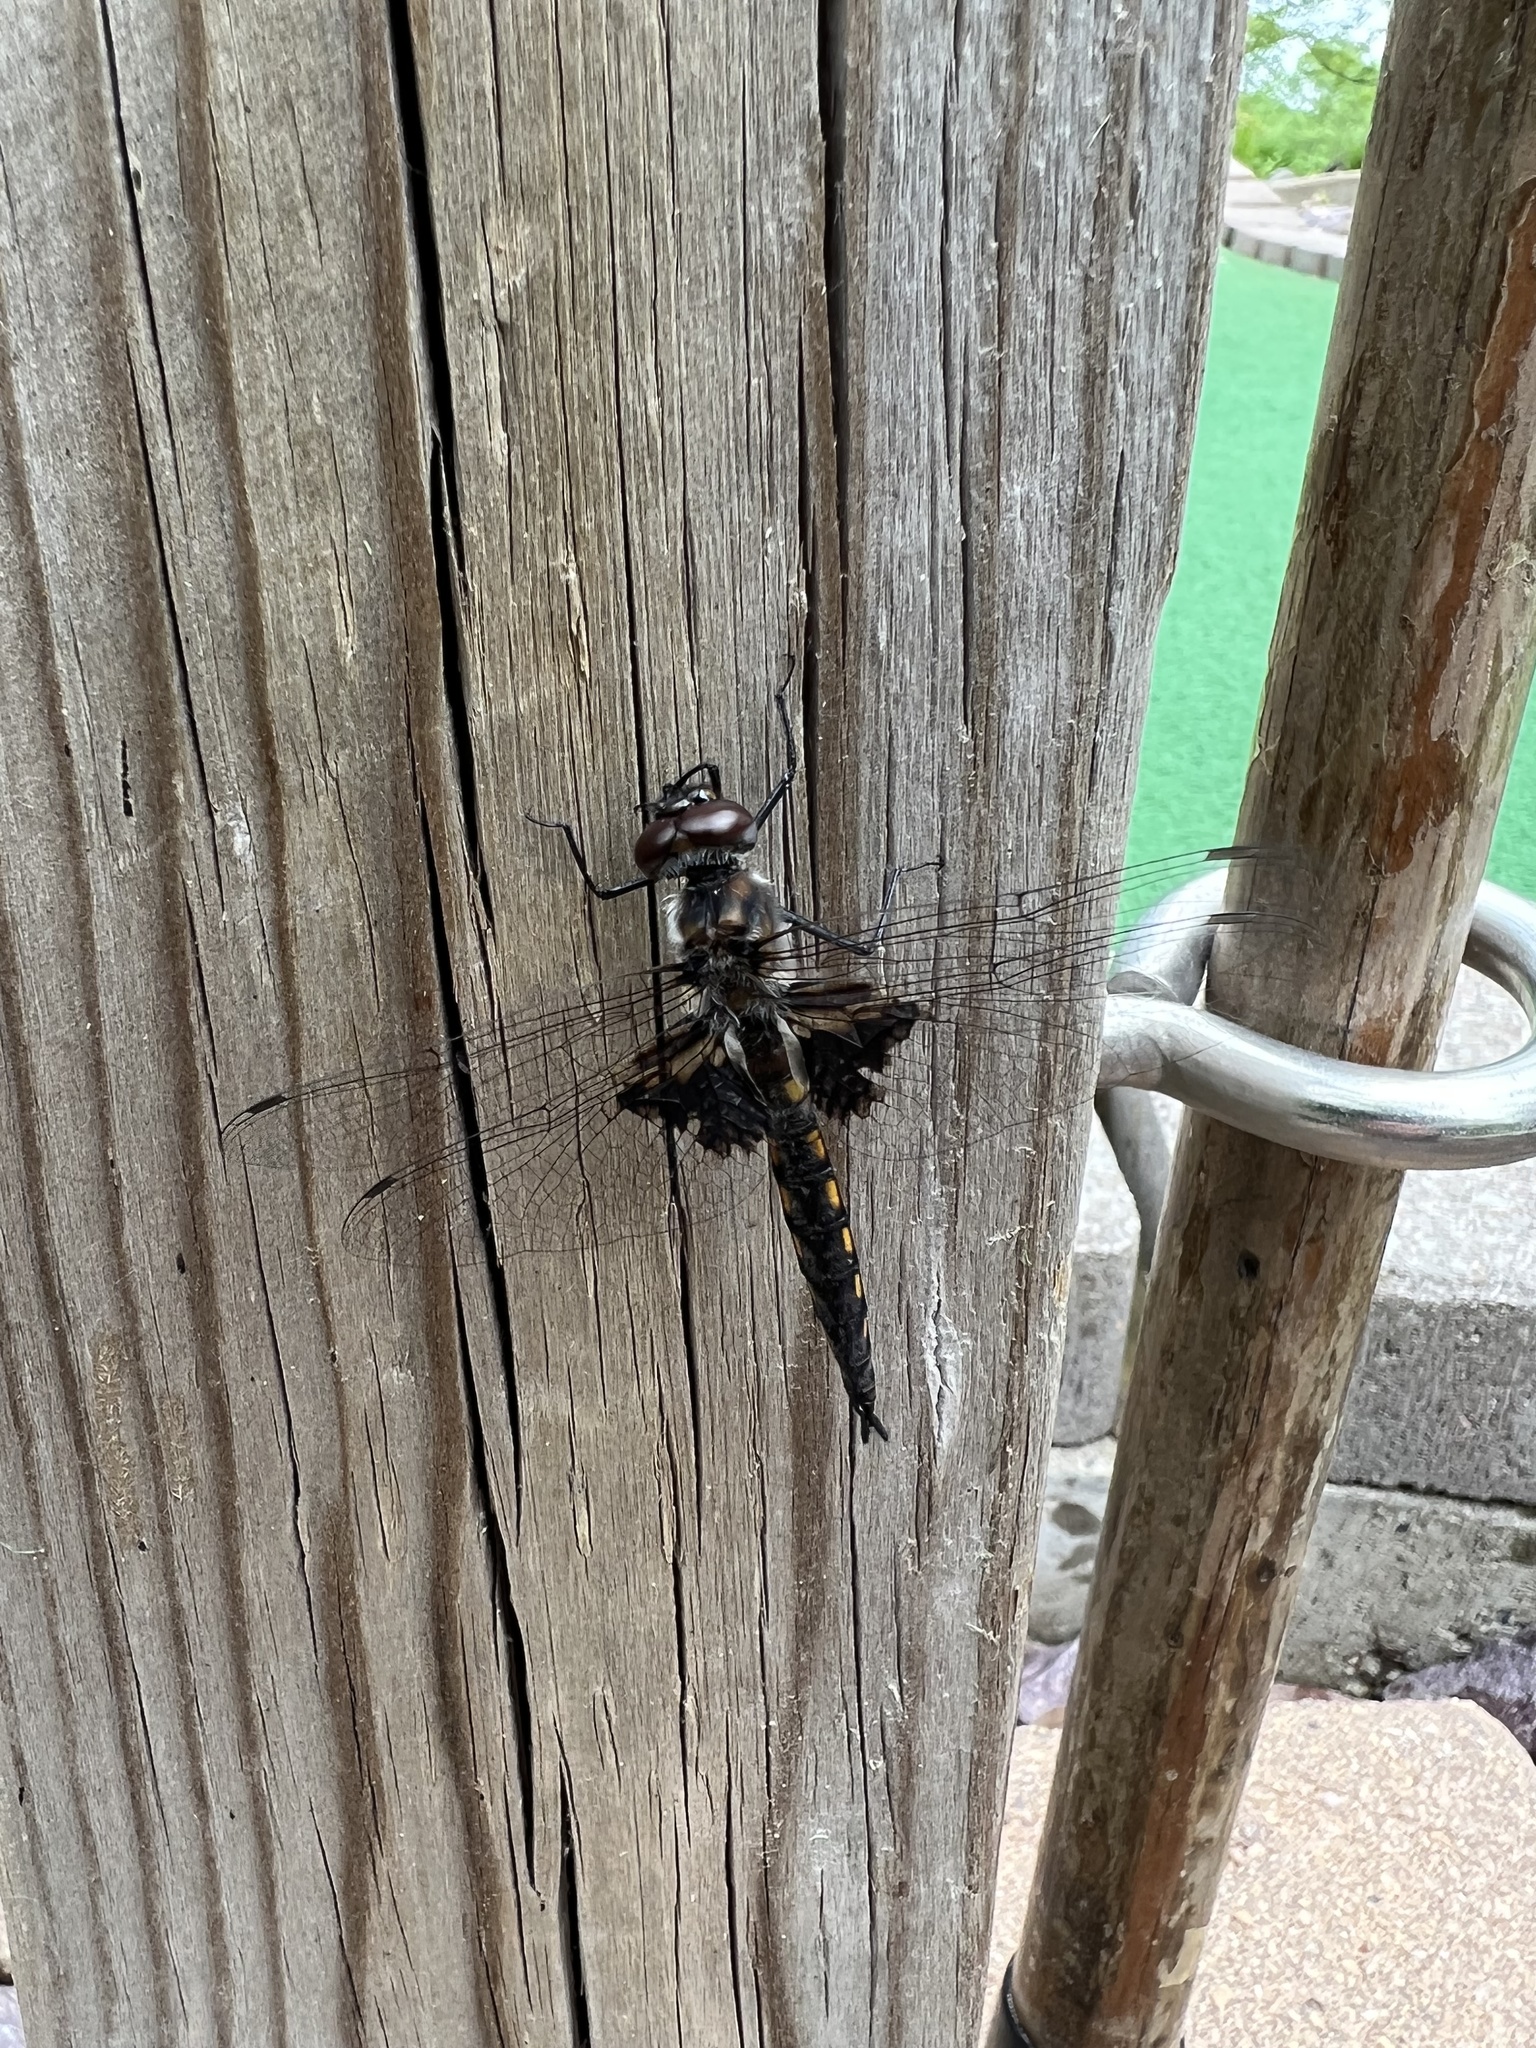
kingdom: Animalia
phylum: Arthropoda
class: Insecta
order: Odonata
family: Corduliidae
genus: Epitheca
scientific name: Epitheca cynosura
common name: Common baskettail
